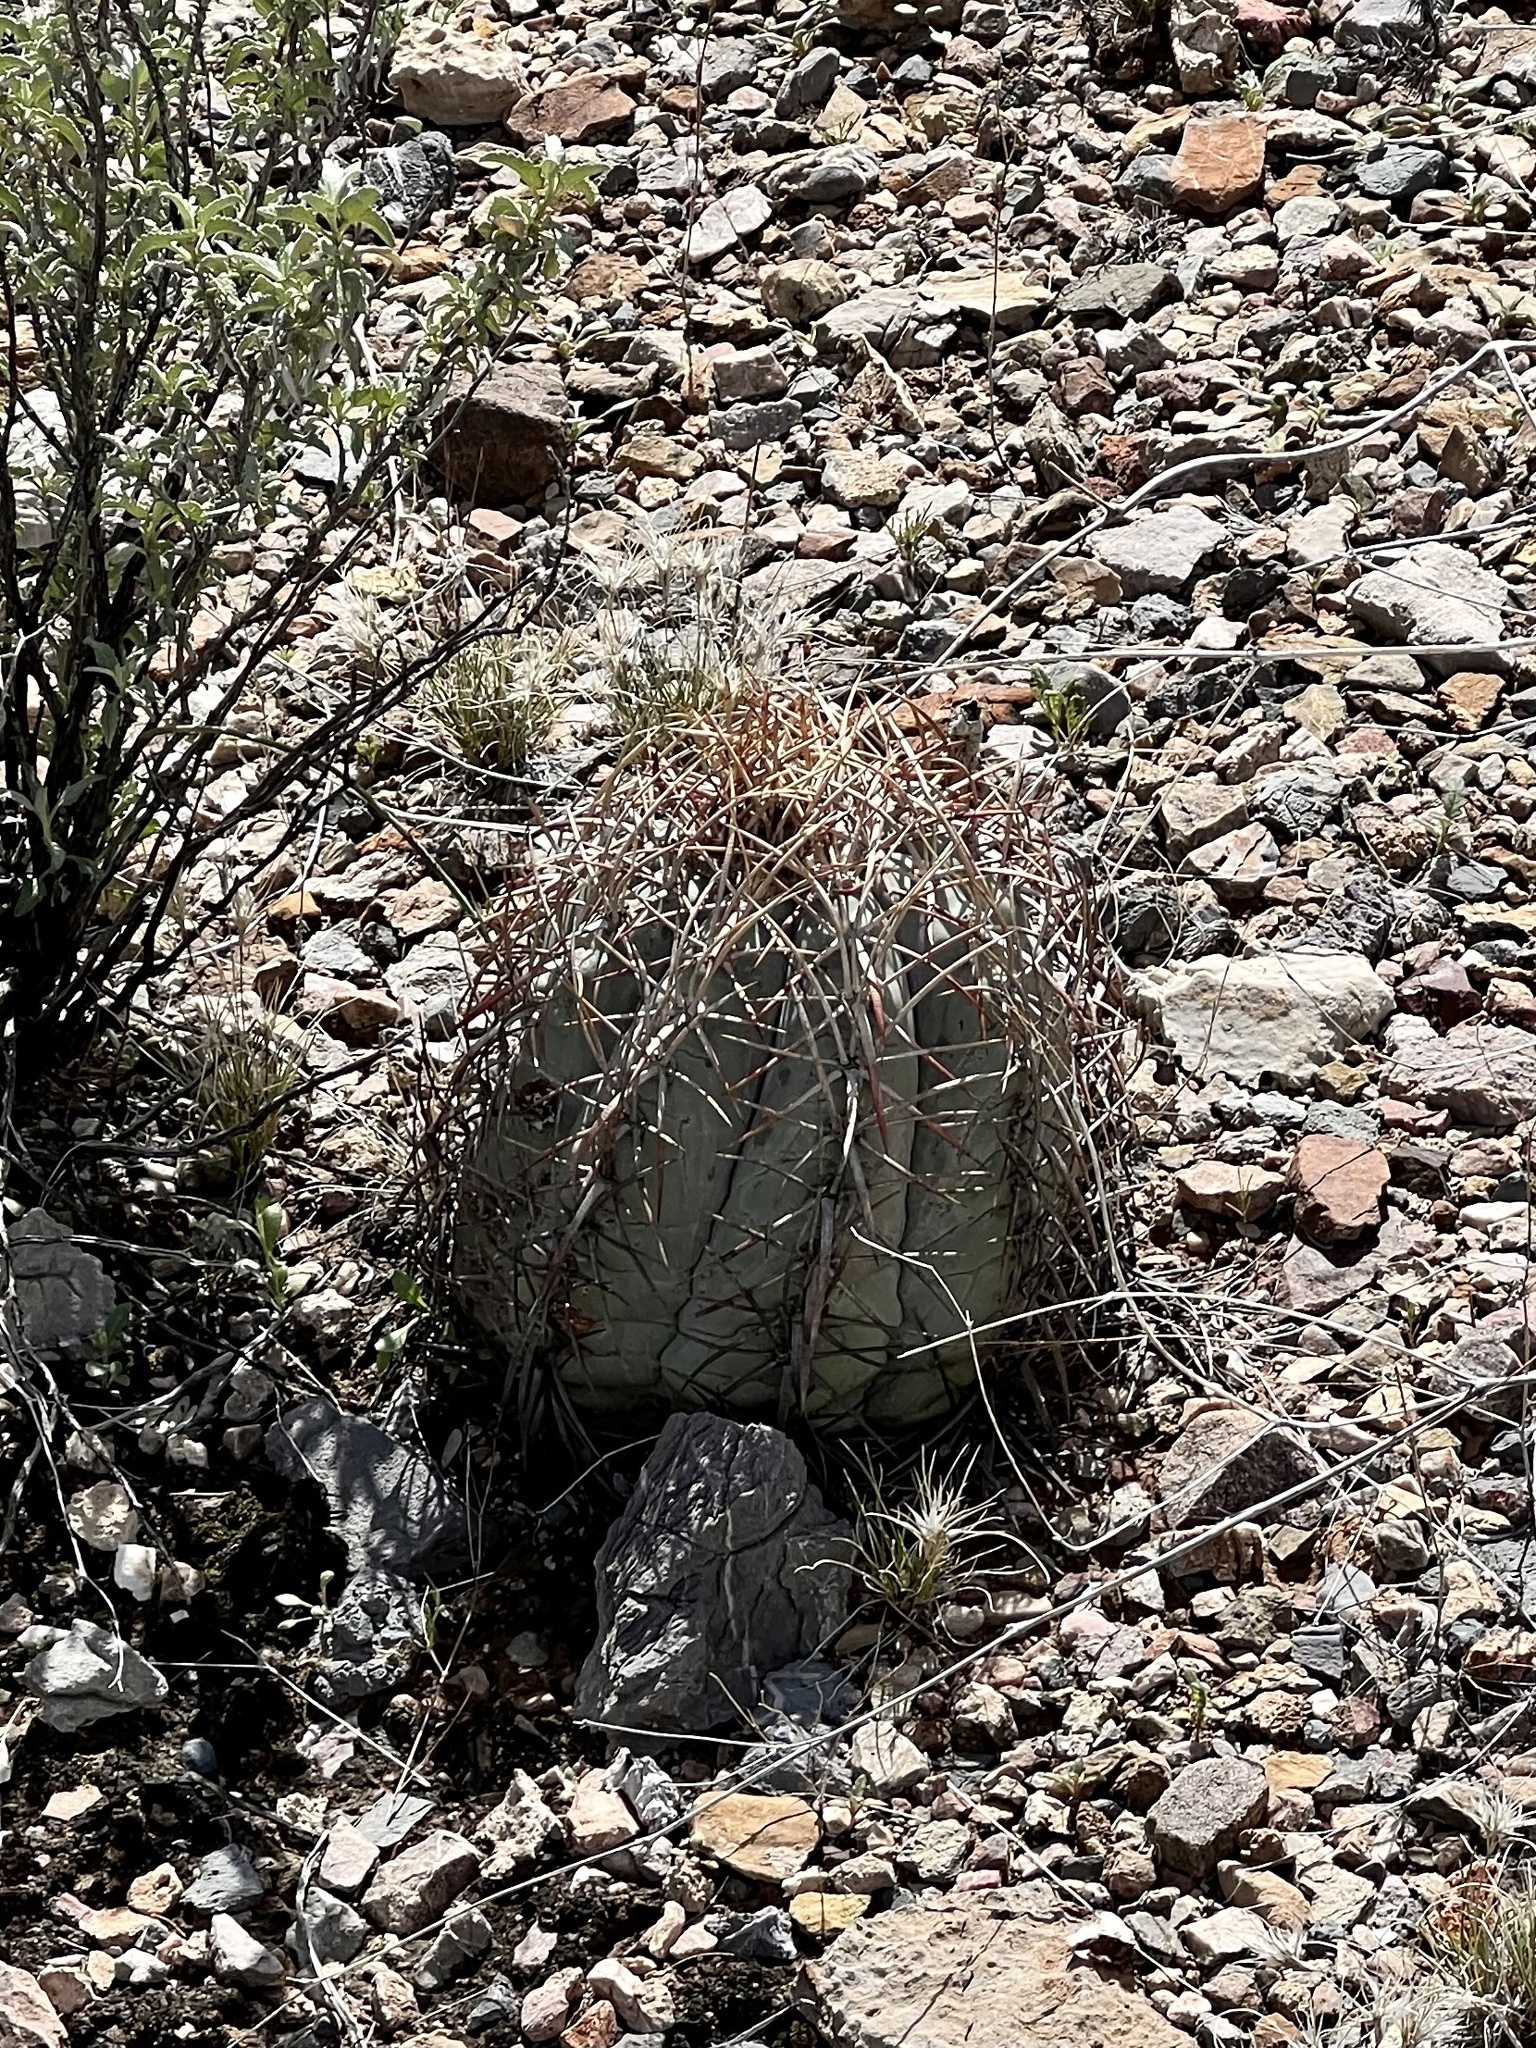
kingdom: Plantae
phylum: Tracheophyta
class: Magnoliopsida
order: Caryophyllales
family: Cactaceae
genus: Echinocactus
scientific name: Echinocactus horizonthalonius
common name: Devilshead
